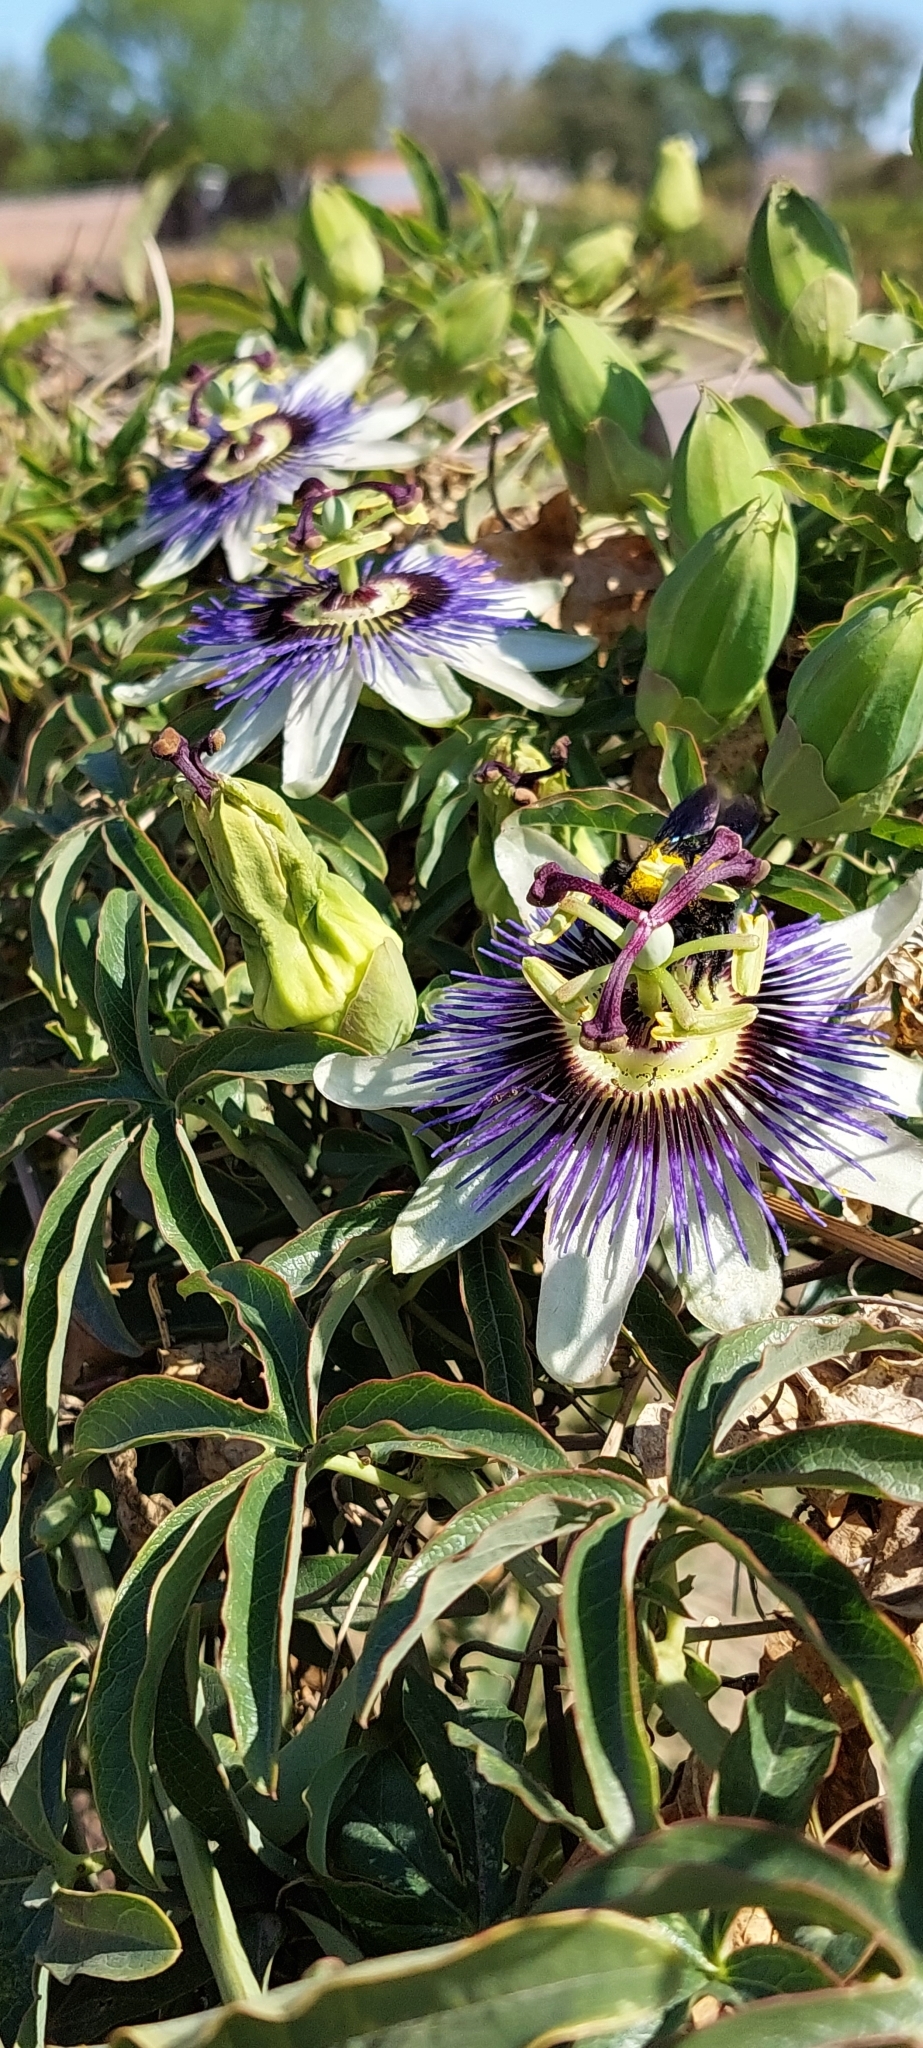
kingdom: Plantae
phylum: Tracheophyta
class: Magnoliopsida
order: Malpighiales
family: Passifloraceae
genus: Passiflora
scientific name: Passiflora caerulea
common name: Blue passionflower
